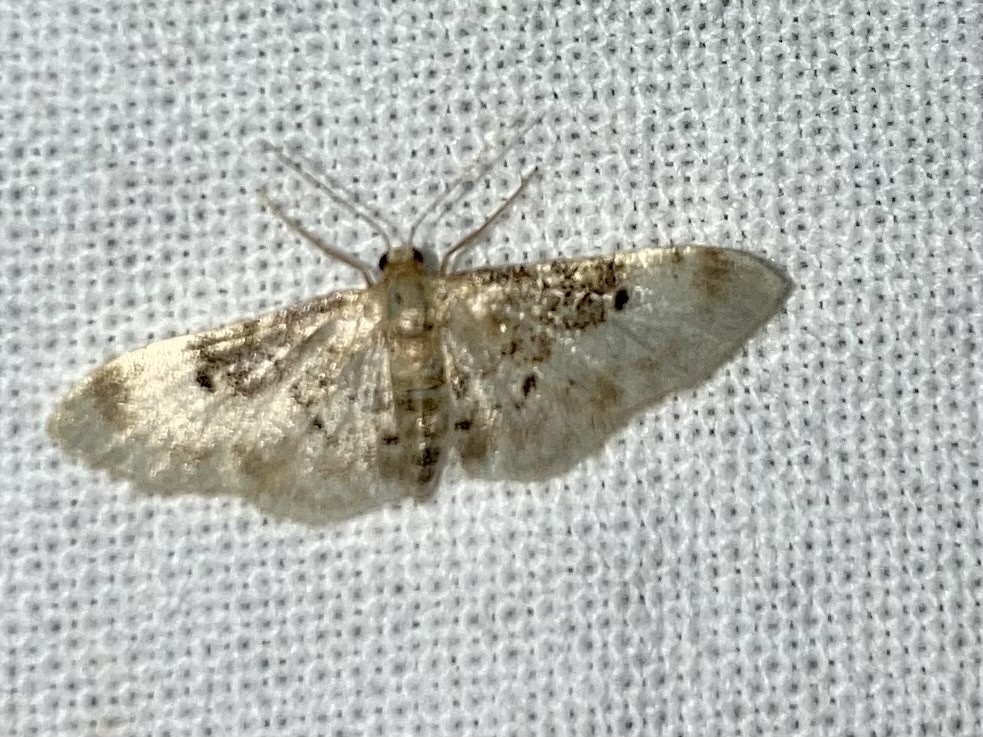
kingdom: Animalia
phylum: Arthropoda
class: Insecta
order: Lepidoptera
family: Geometridae
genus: Idaea
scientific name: Idaea filicata
